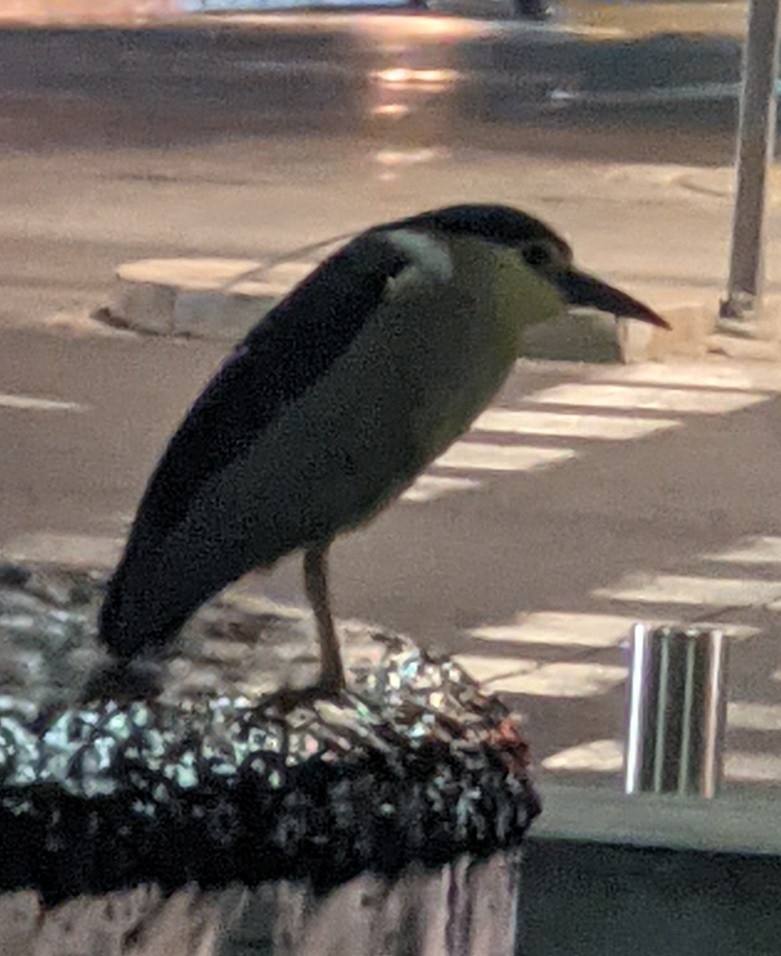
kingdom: Animalia
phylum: Chordata
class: Aves
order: Pelecaniformes
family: Ardeidae
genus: Nycticorax
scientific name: Nycticorax nycticorax
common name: Black-crowned night heron
